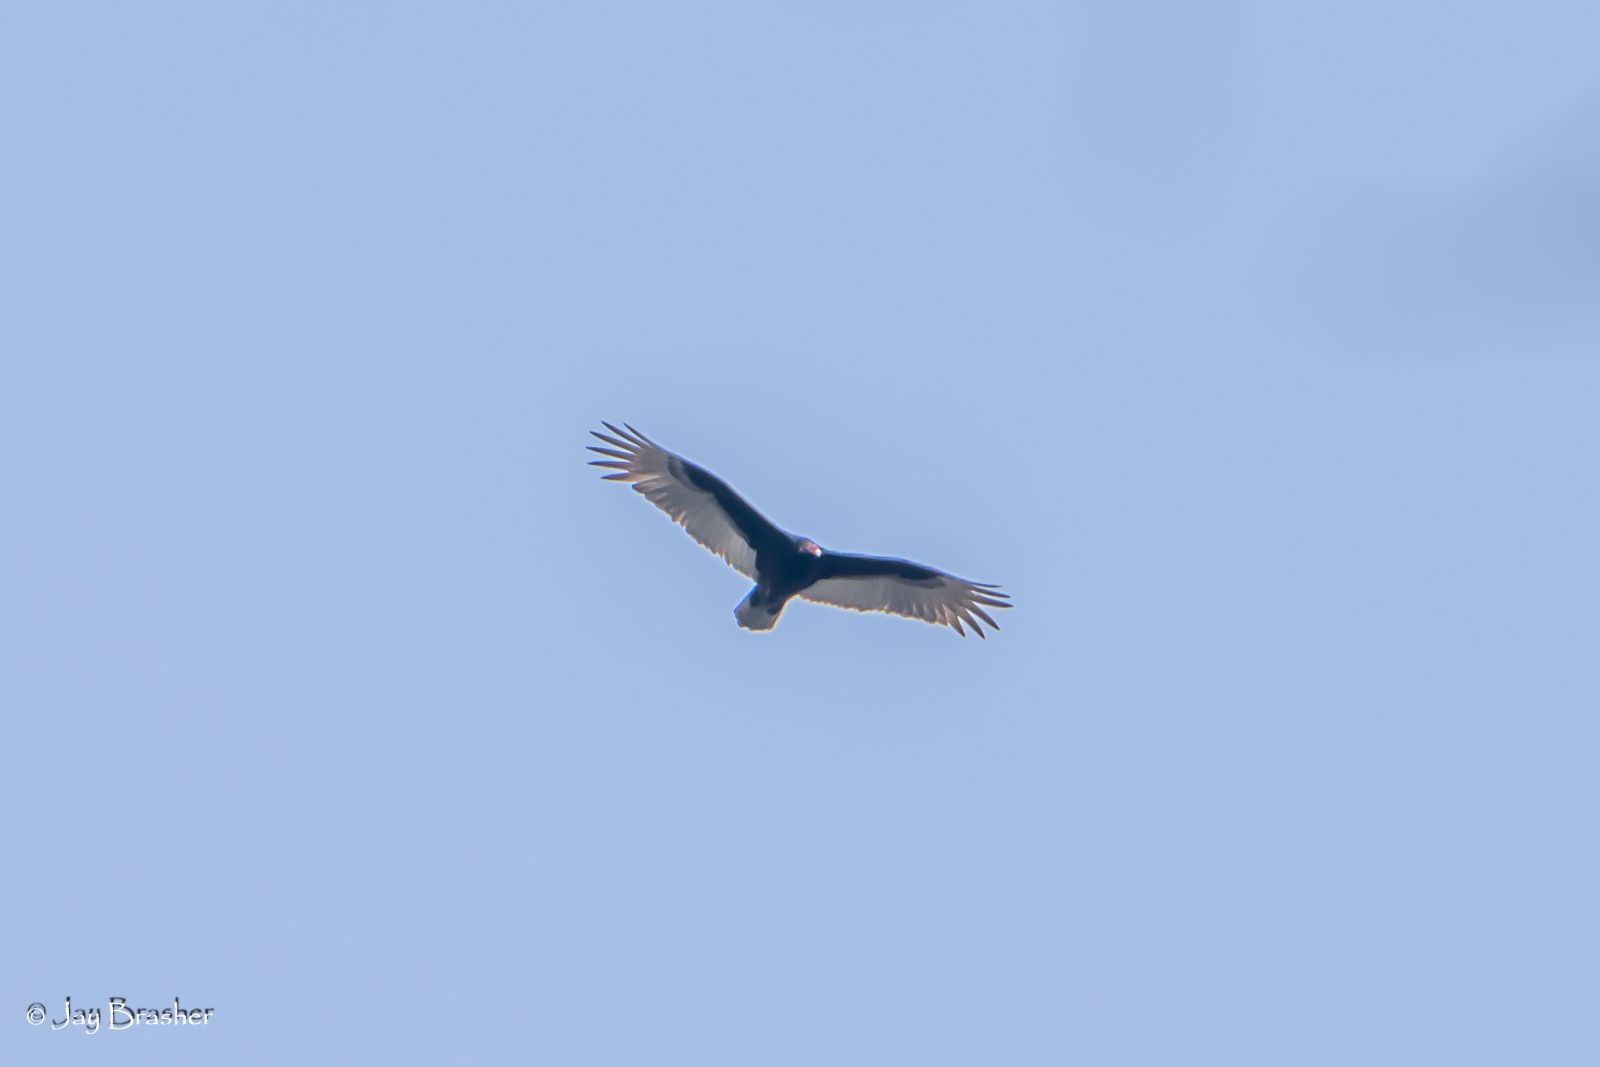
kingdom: Animalia
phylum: Chordata
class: Aves
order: Accipitriformes
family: Cathartidae
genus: Cathartes
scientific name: Cathartes aura
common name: Turkey vulture
